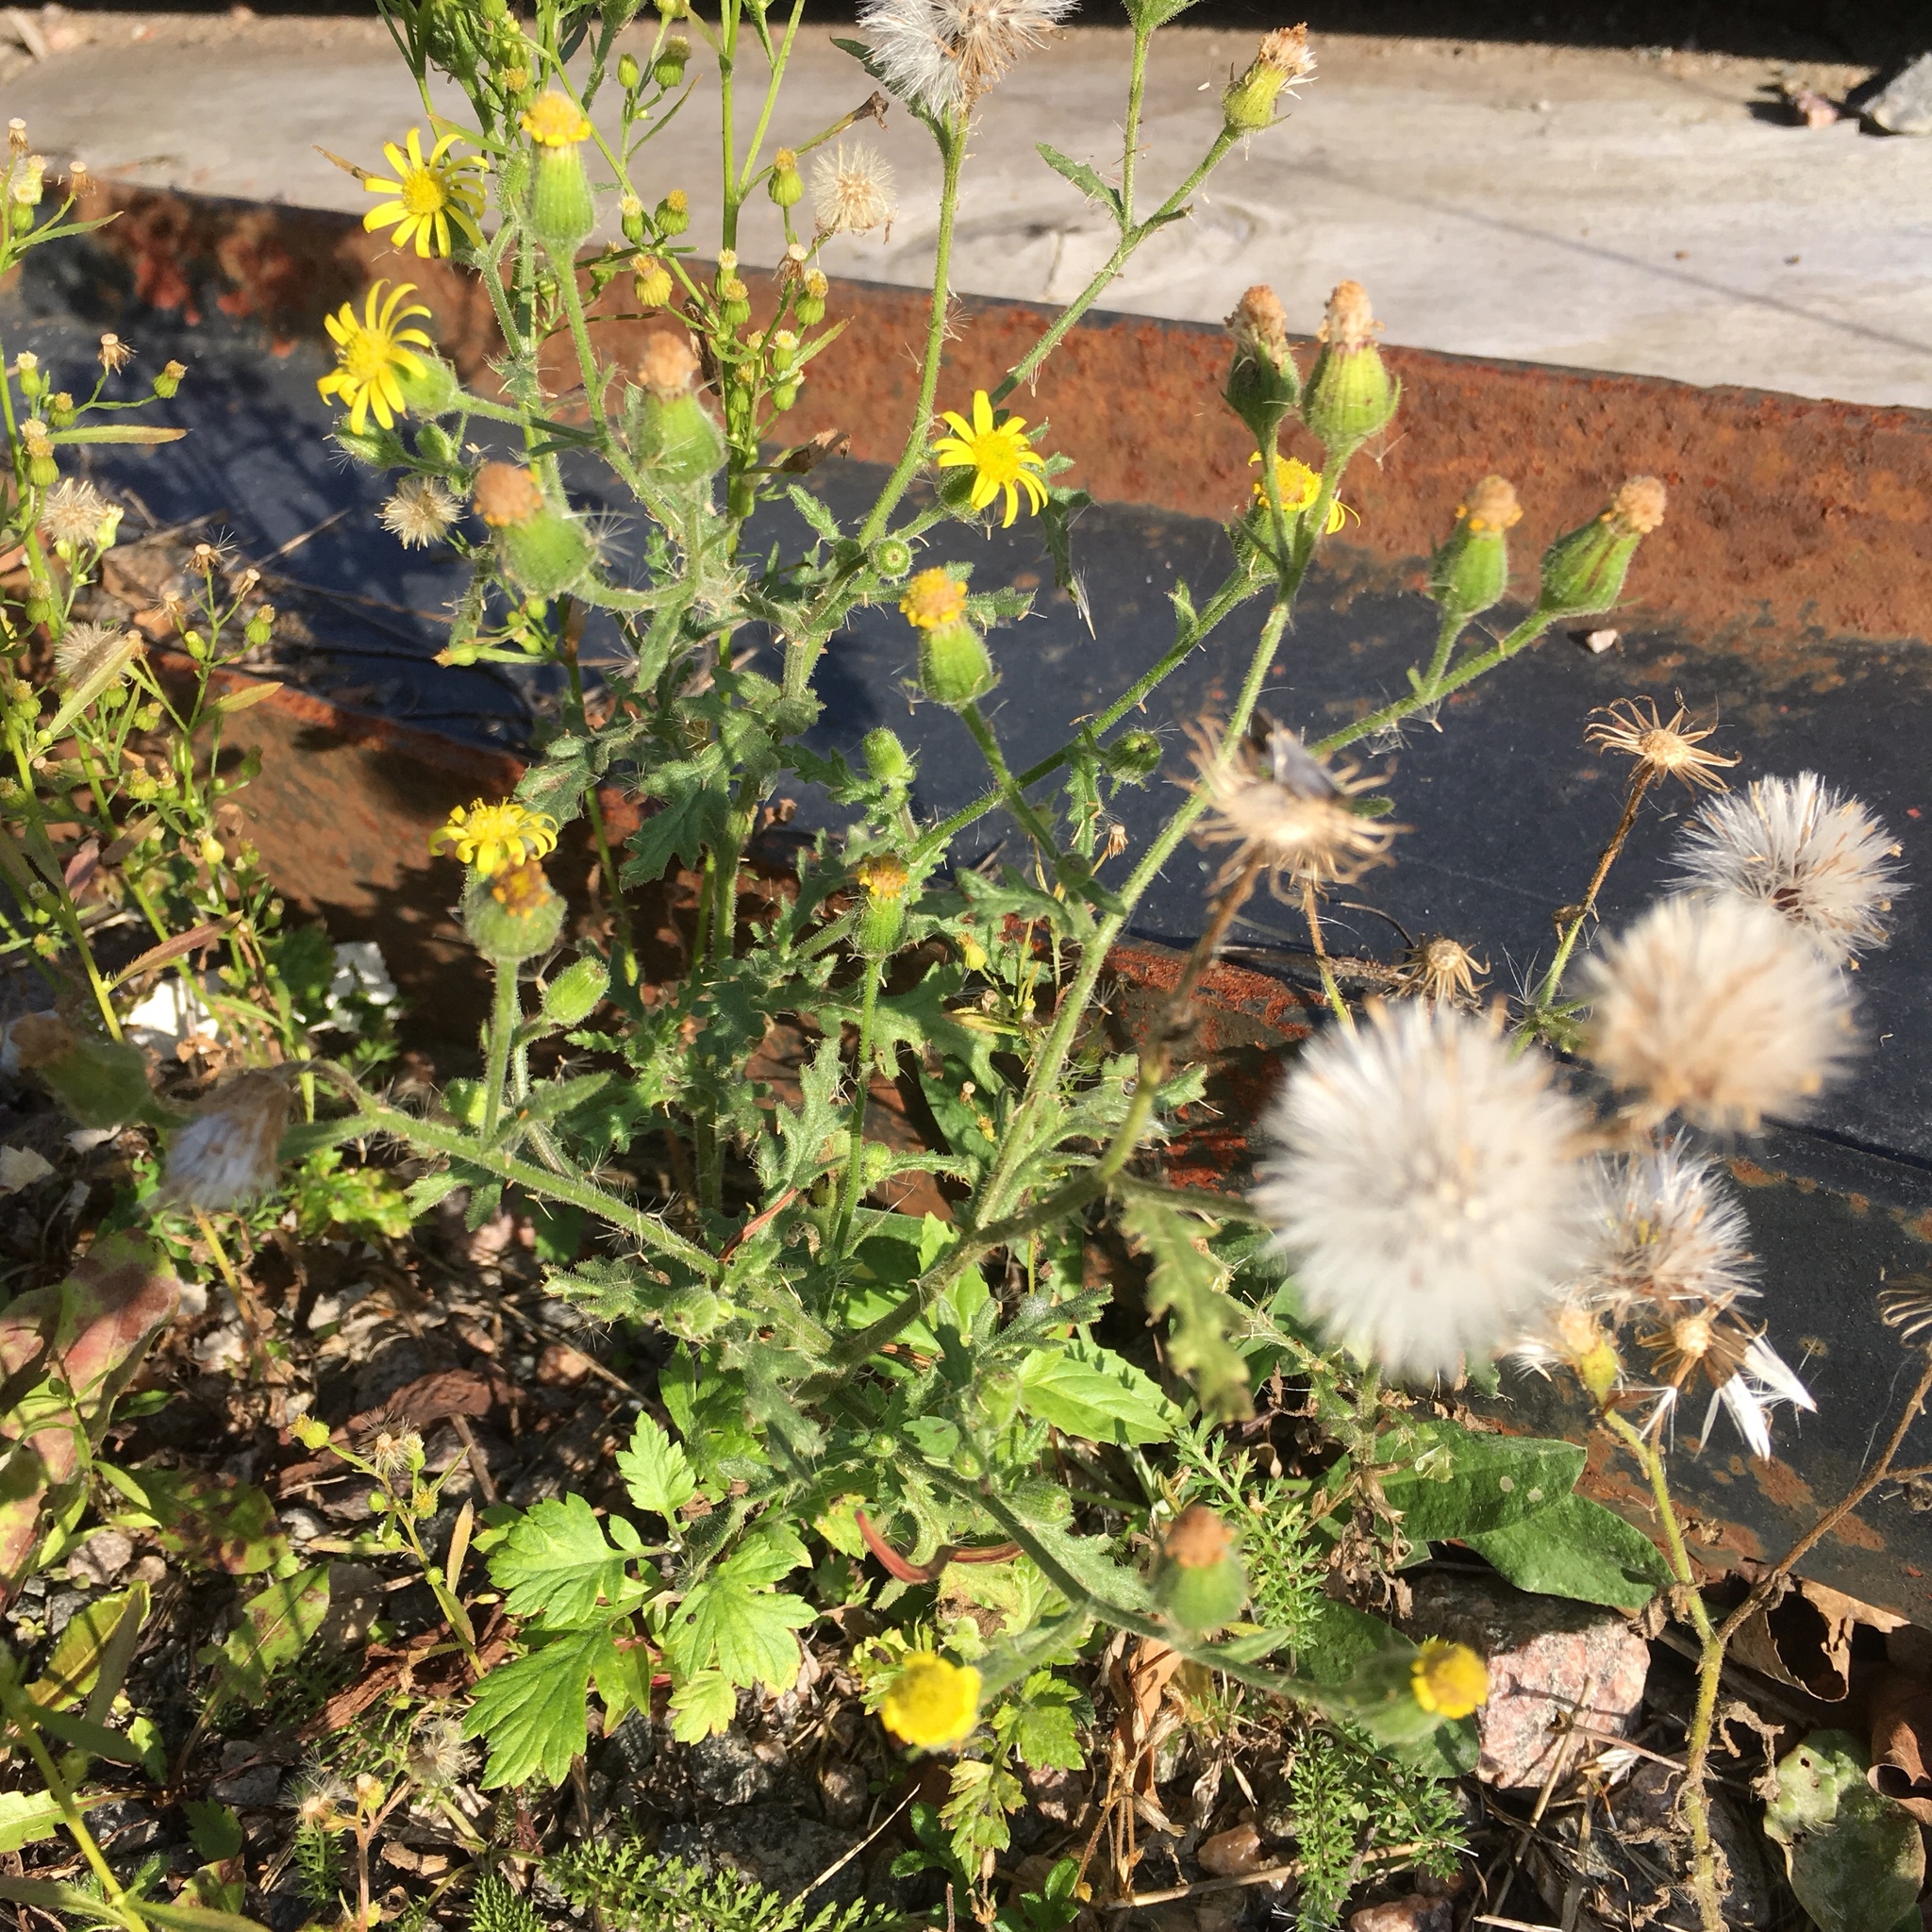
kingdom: Plantae
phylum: Tracheophyta
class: Magnoliopsida
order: Asterales
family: Asteraceae
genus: Senecio
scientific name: Senecio viscosus
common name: Sticky groundsel
